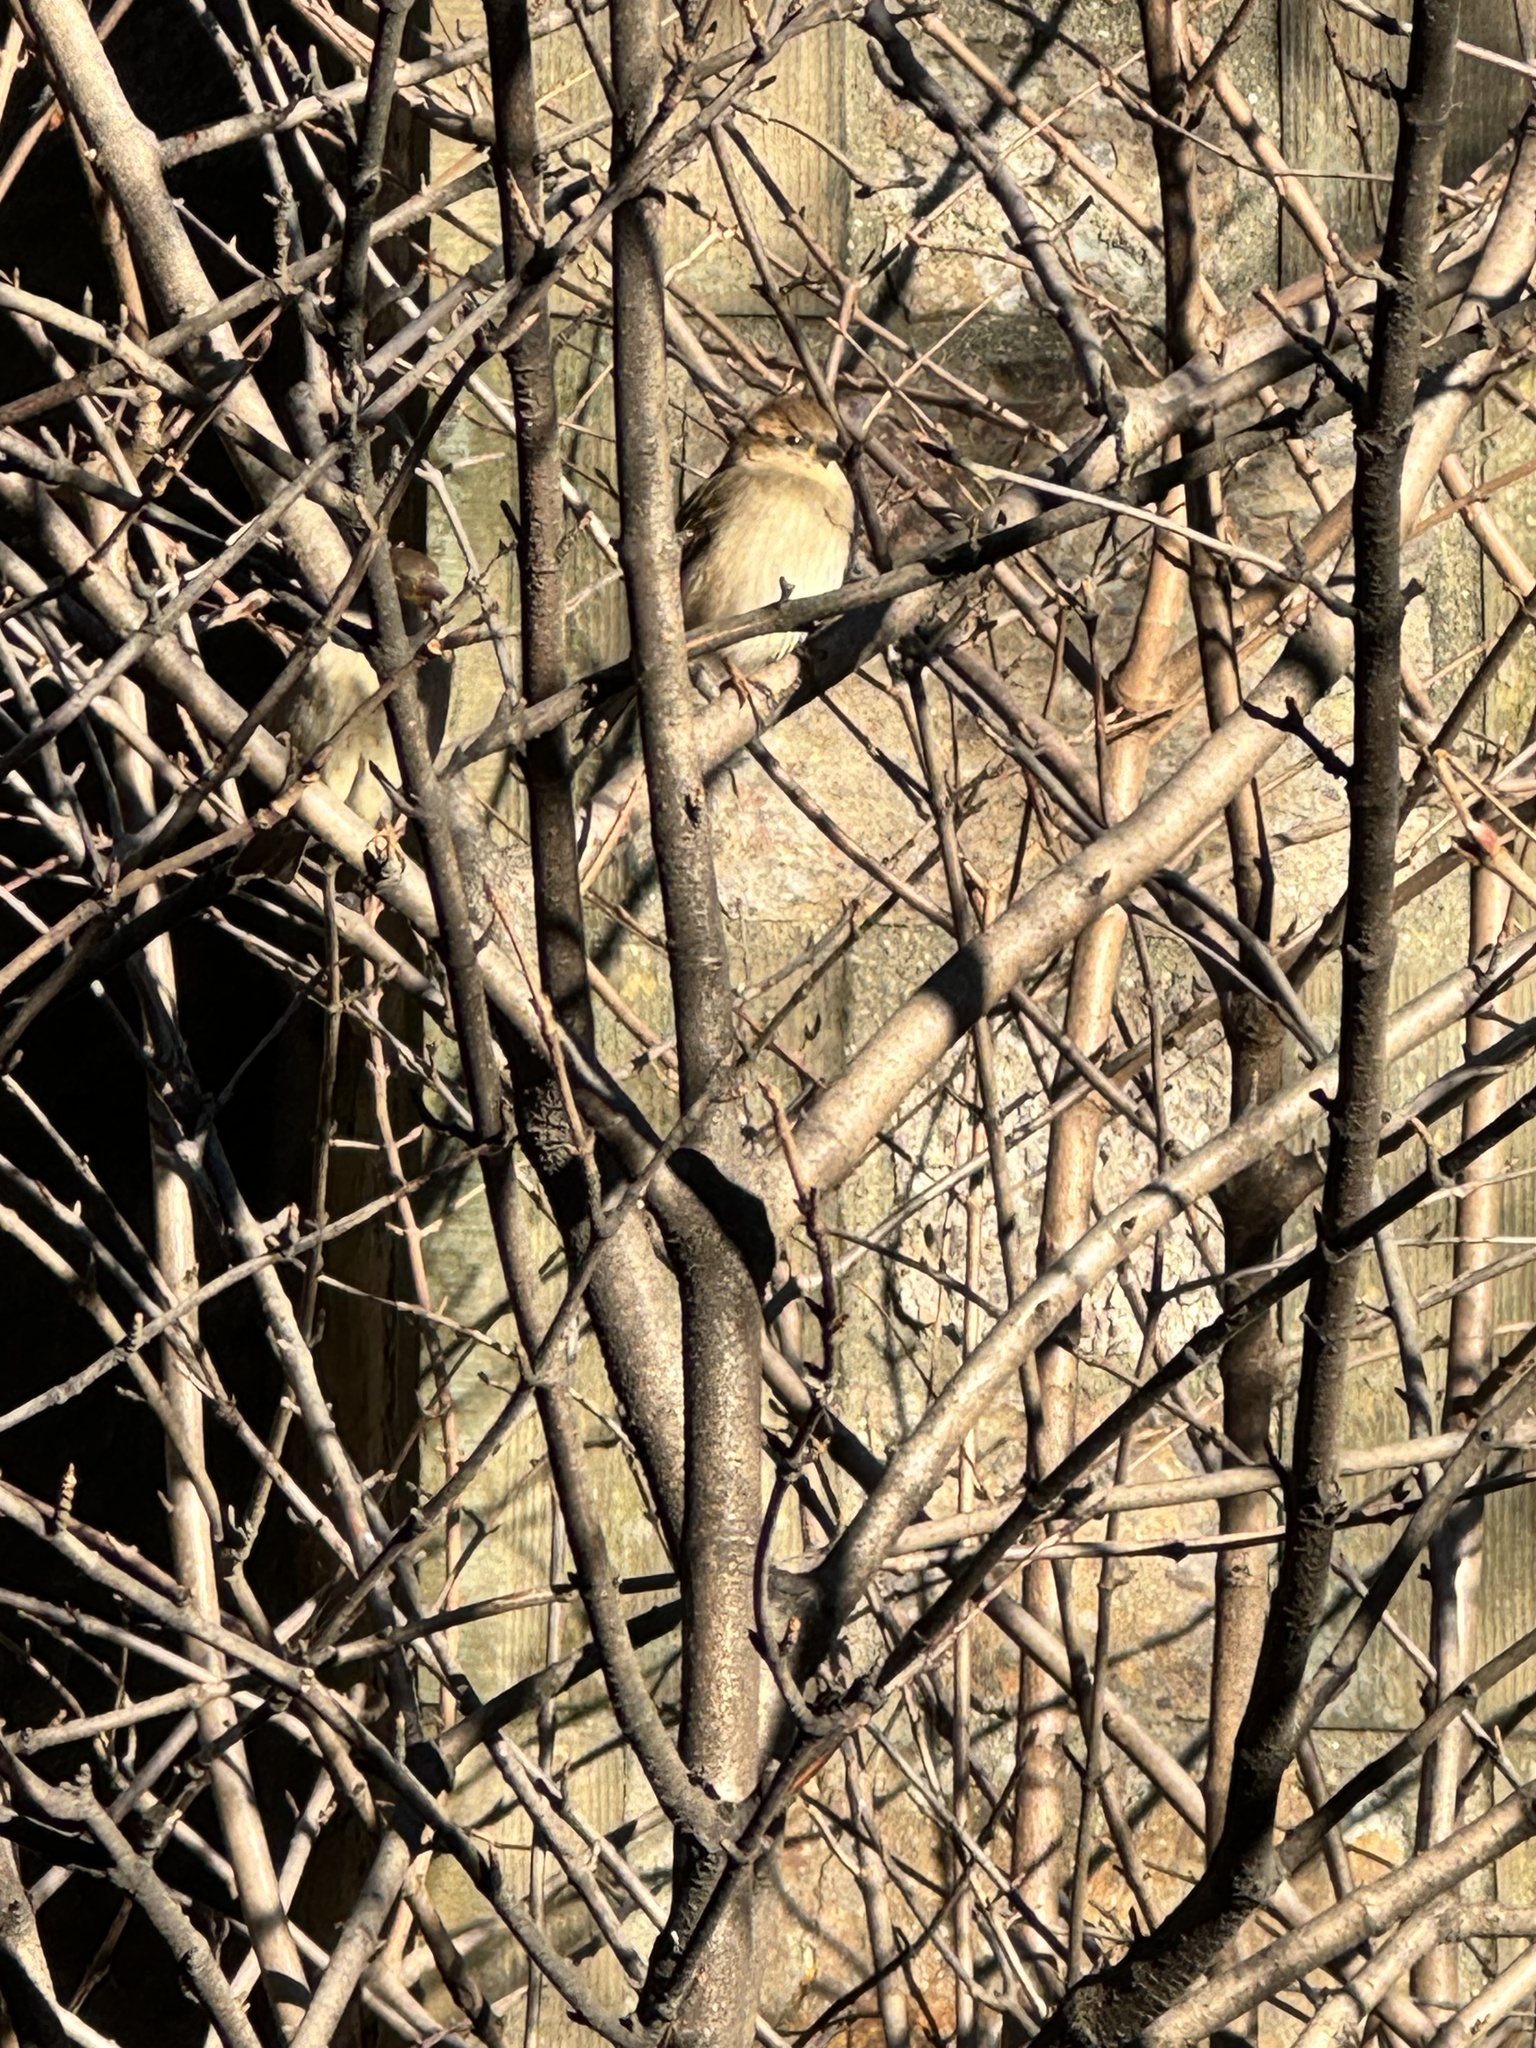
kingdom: Animalia
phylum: Chordata
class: Aves
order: Passeriformes
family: Passeridae
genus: Passer
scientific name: Passer domesticus
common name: House sparrow
